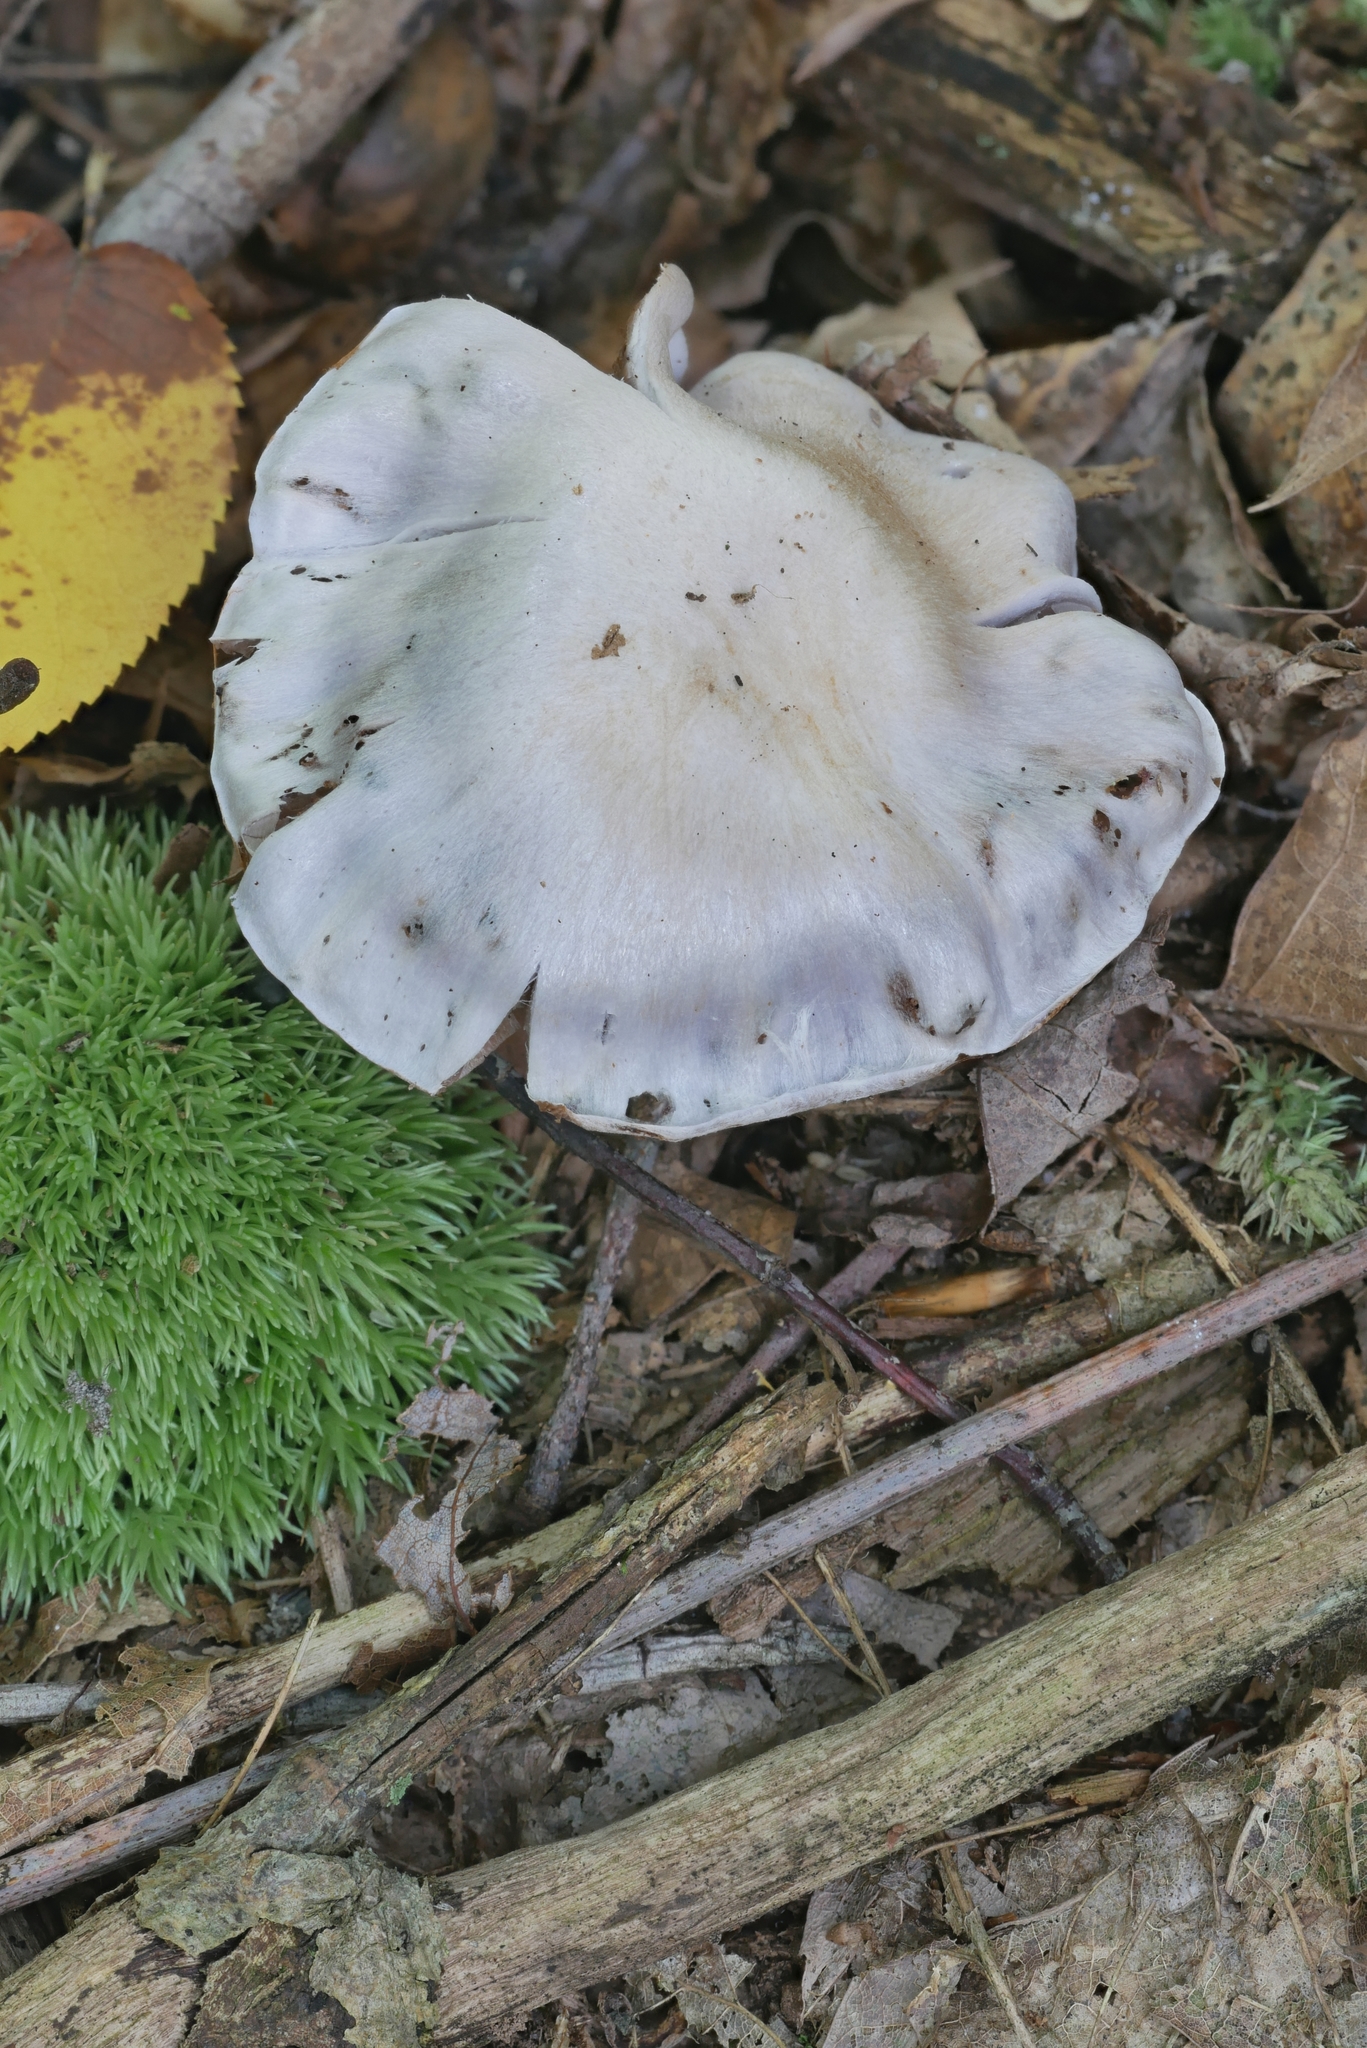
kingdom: Fungi
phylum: Basidiomycota
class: Agaricomycetes
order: Agaricales
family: Cortinariaceae
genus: Cortinarius
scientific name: Cortinarius obliquus
